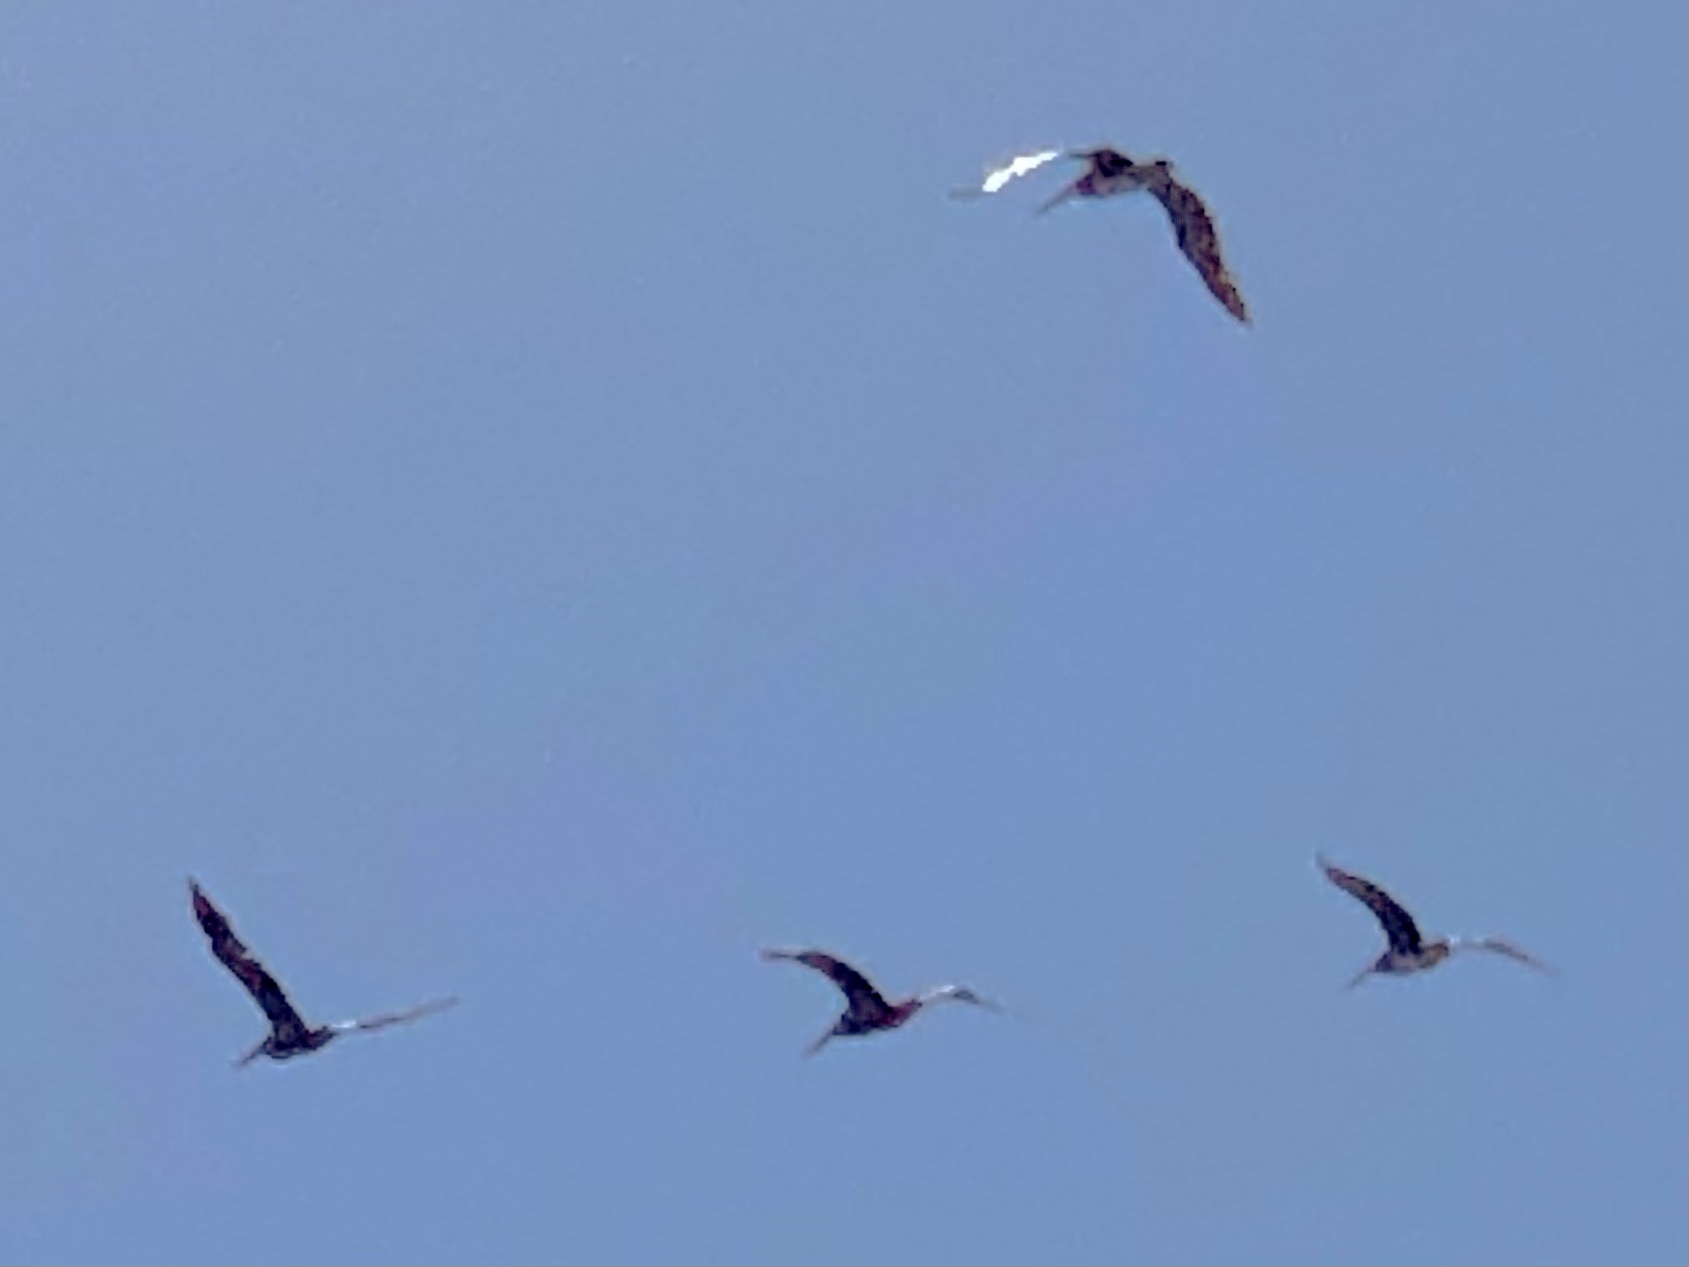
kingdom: Animalia
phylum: Chordata
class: Aves
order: Pelecaniformes
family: Pelecanidae
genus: Pelecanus
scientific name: Pelecanus occidentalis
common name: Brown pelican
